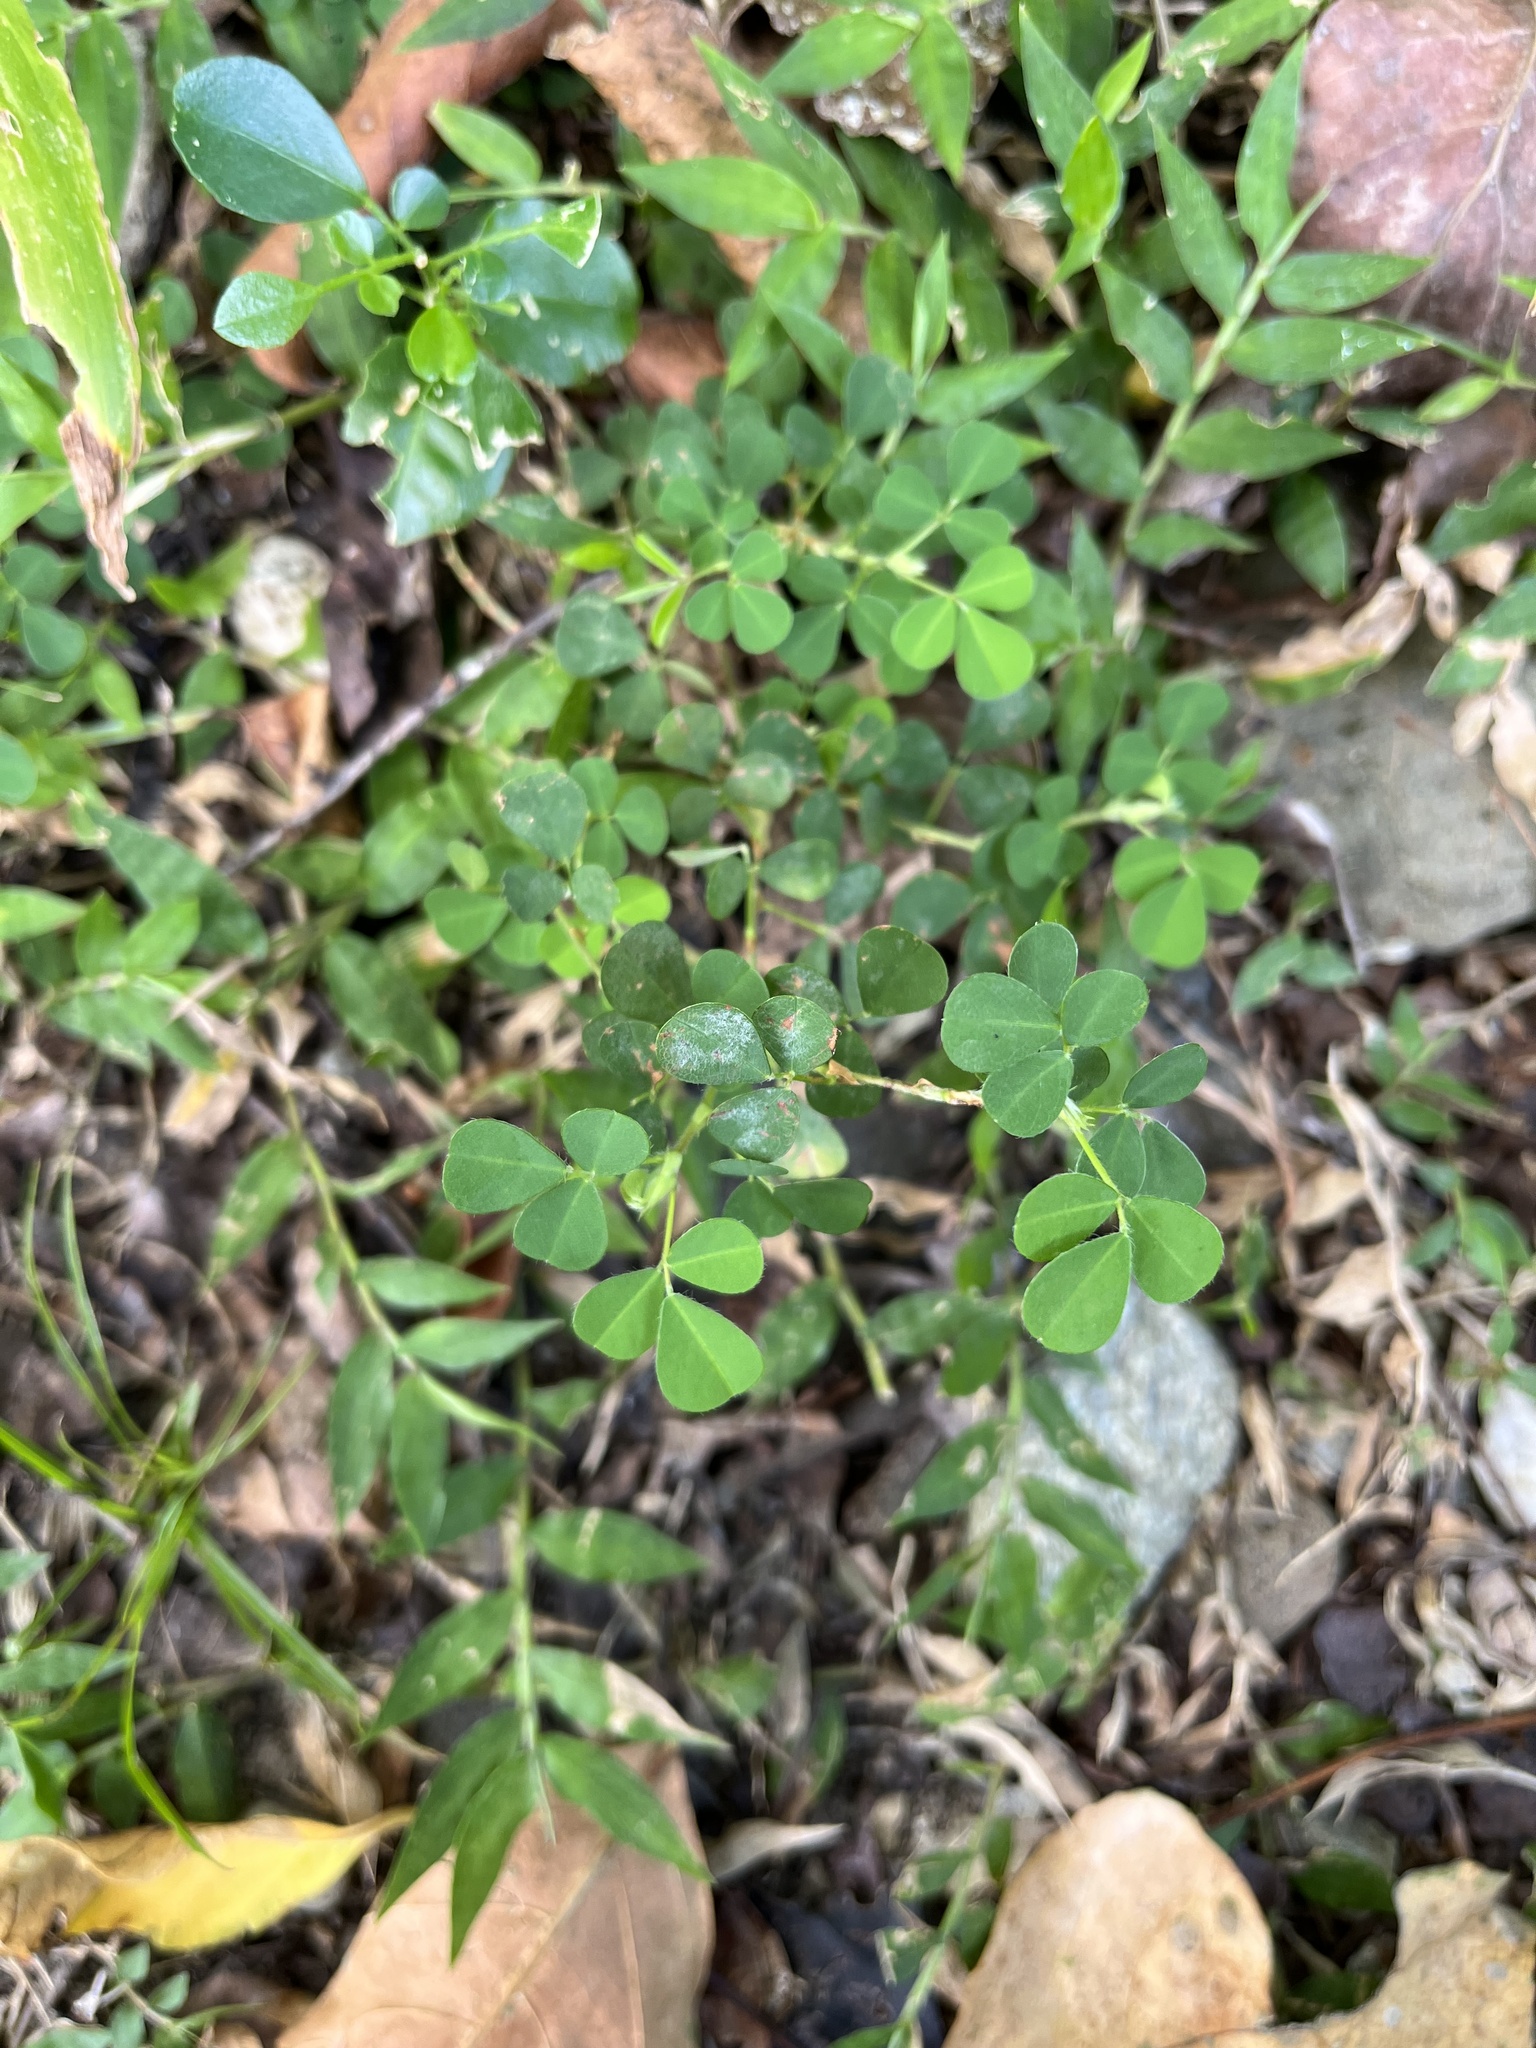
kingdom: Plantae
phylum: Tracheophyta
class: Magnoliopsida
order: Fabales
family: Fabaceae
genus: Grona
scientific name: Grona triflora
